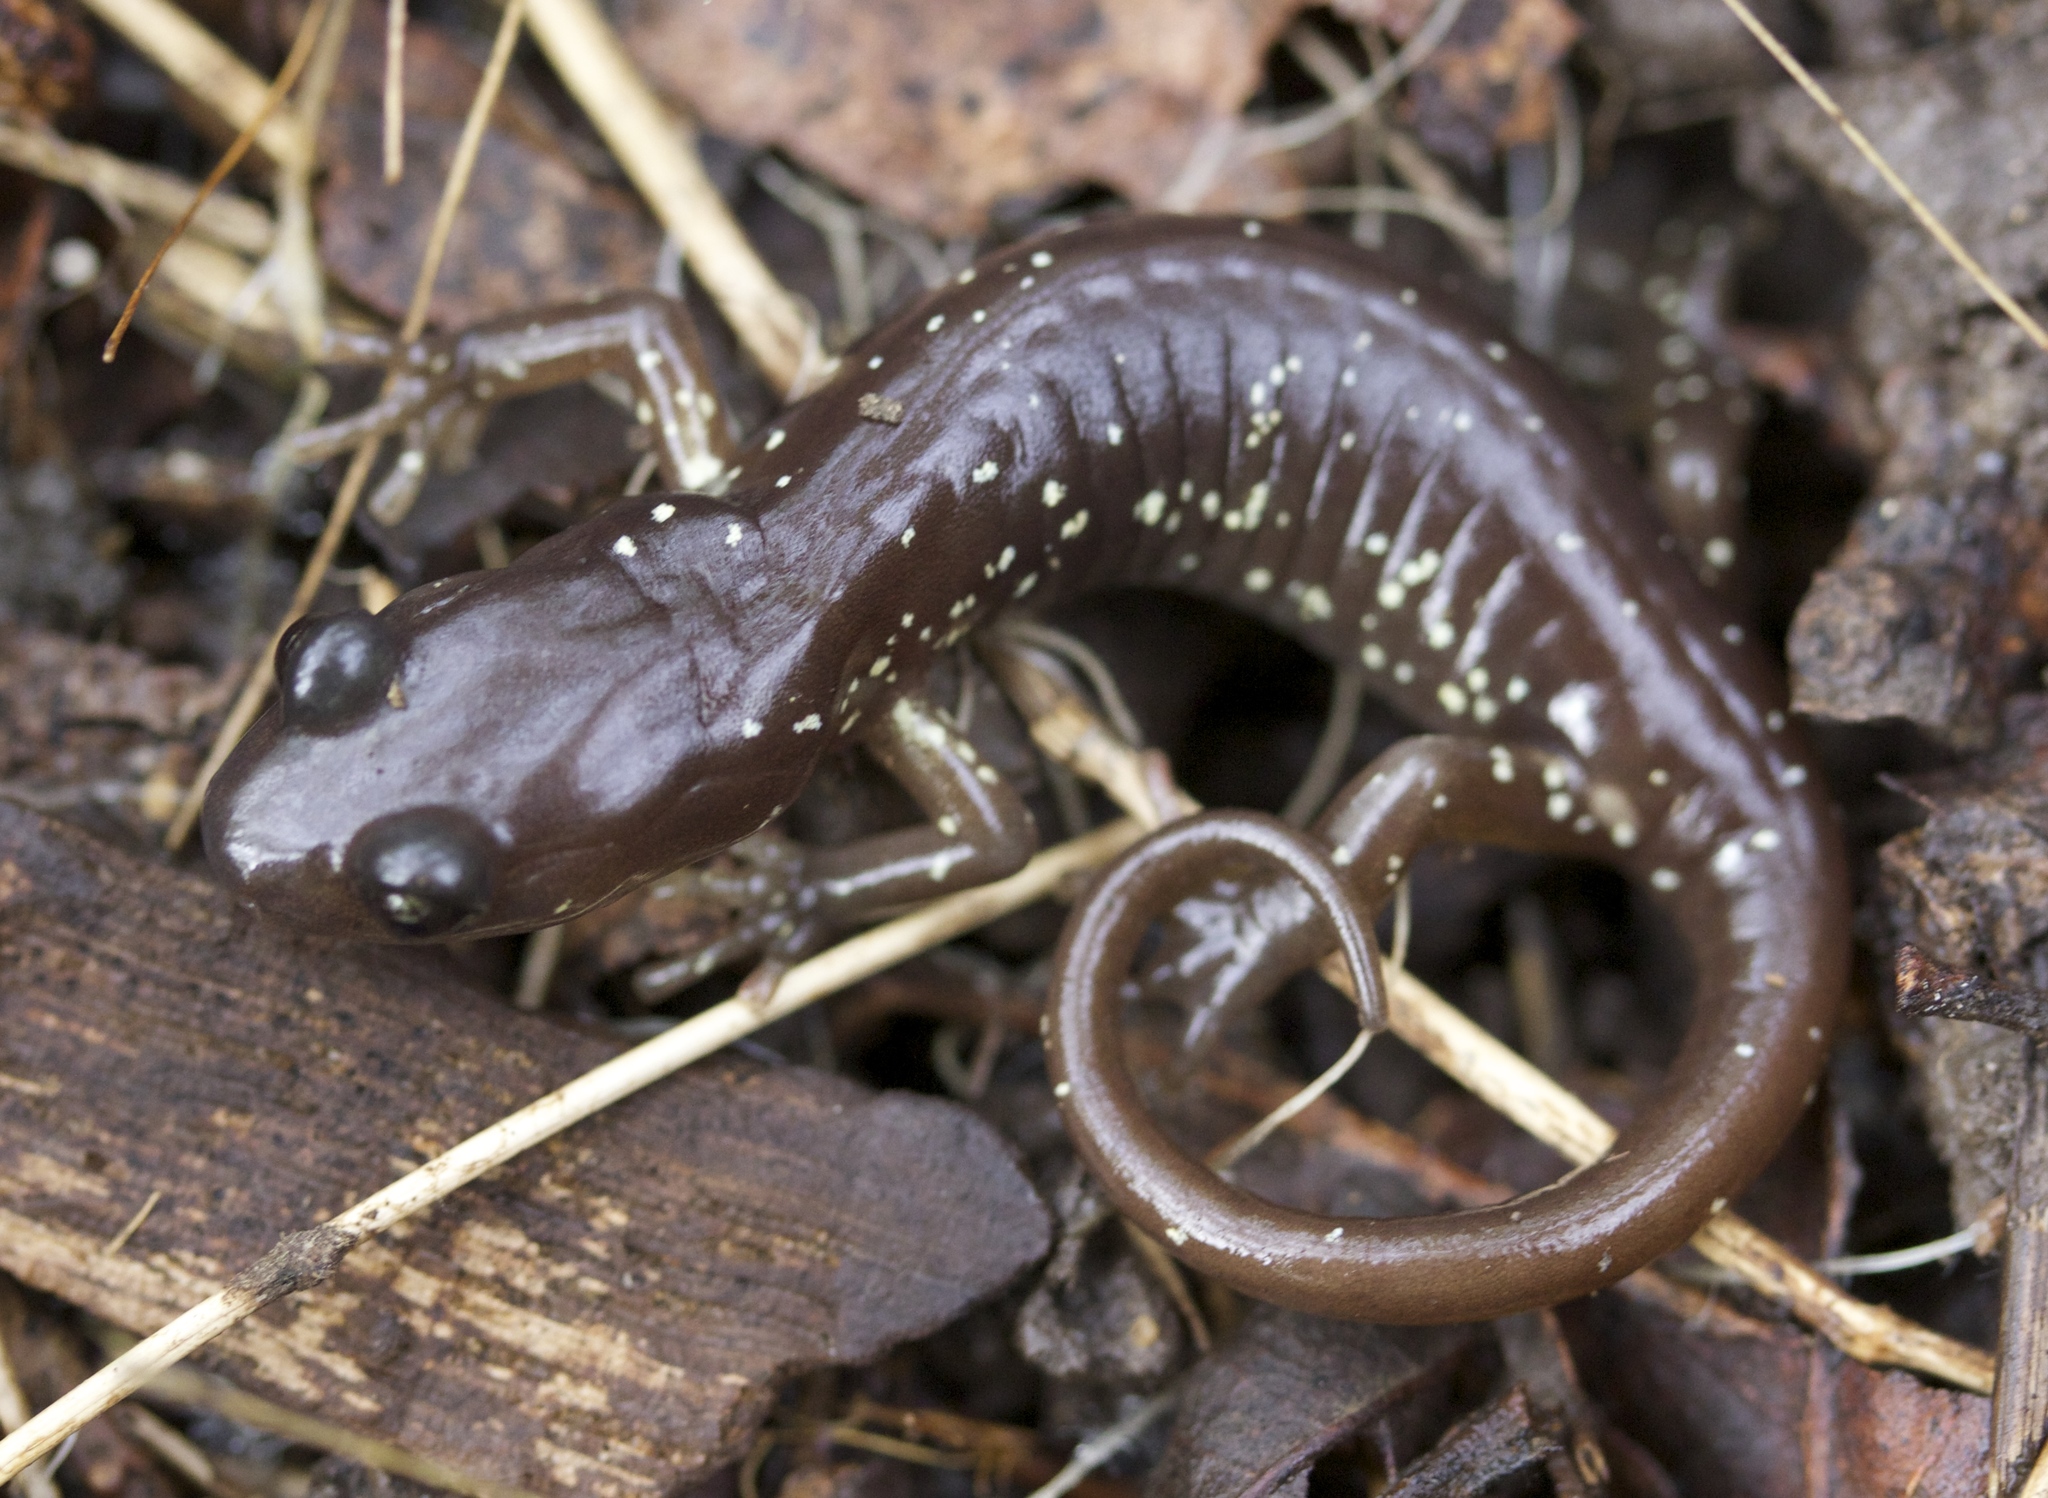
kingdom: Animalia
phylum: Chordata
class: Amphibia
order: Caudata
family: Plethodontidae
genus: Aneides
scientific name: Aneides lugubris
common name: Arboreal salamander
